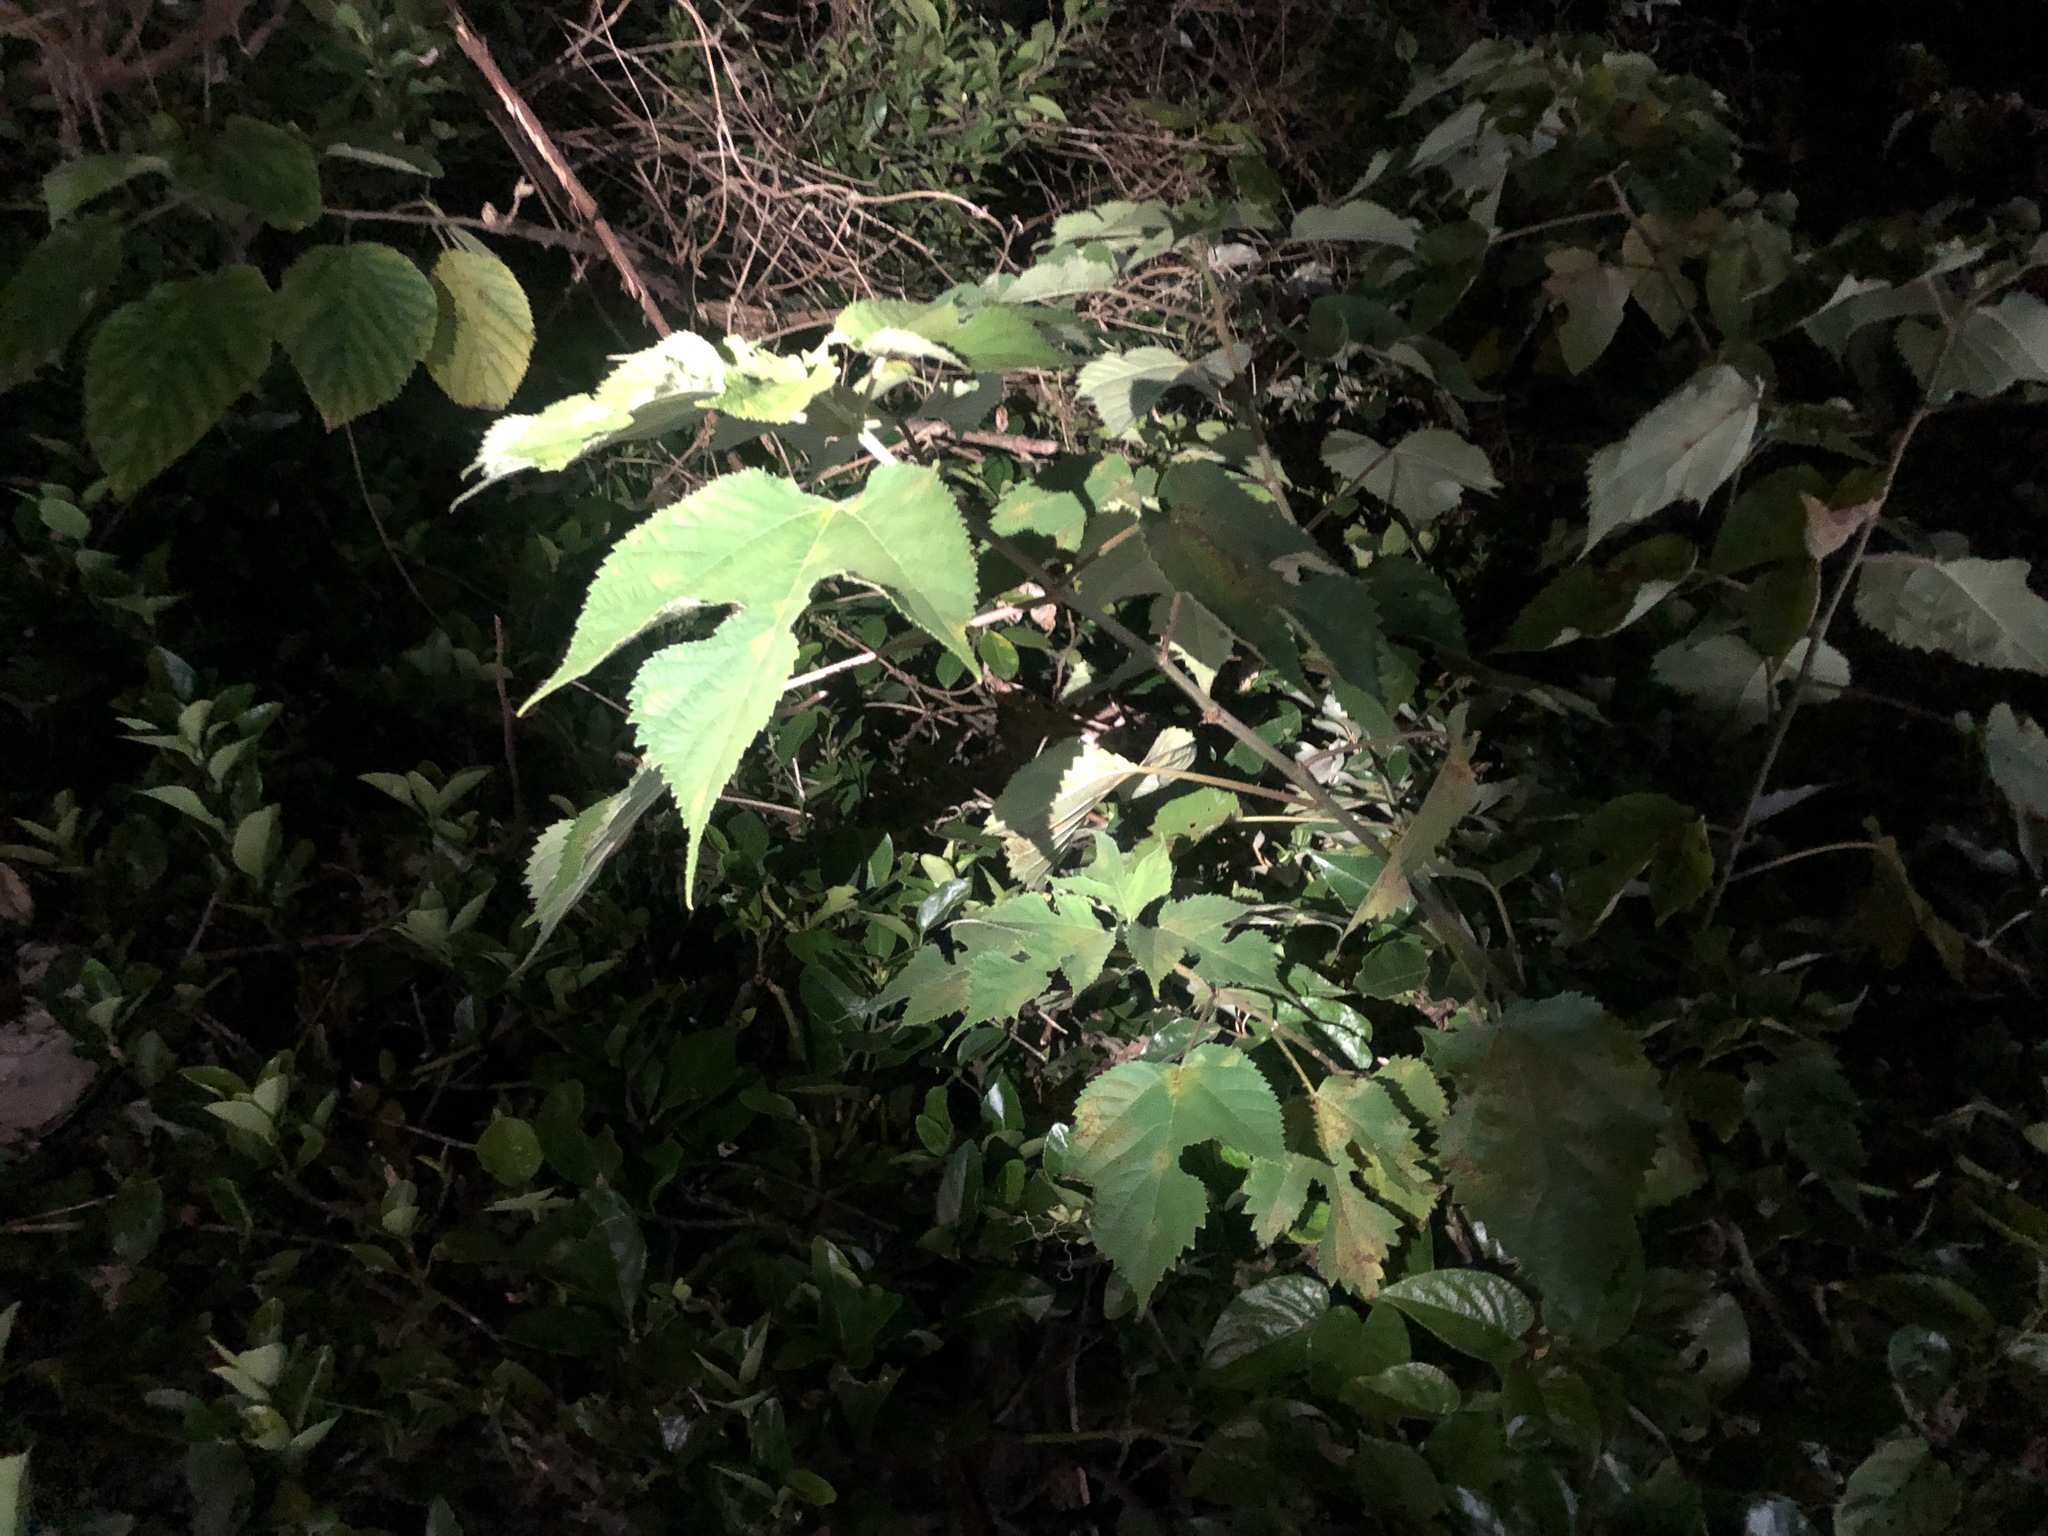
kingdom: Plantae
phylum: Tracheophyta
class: Magnoliopsida
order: Rosales
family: Moraceae
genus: Broussonetia
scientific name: Broussonetia papyrifera
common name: Paper mulberry
